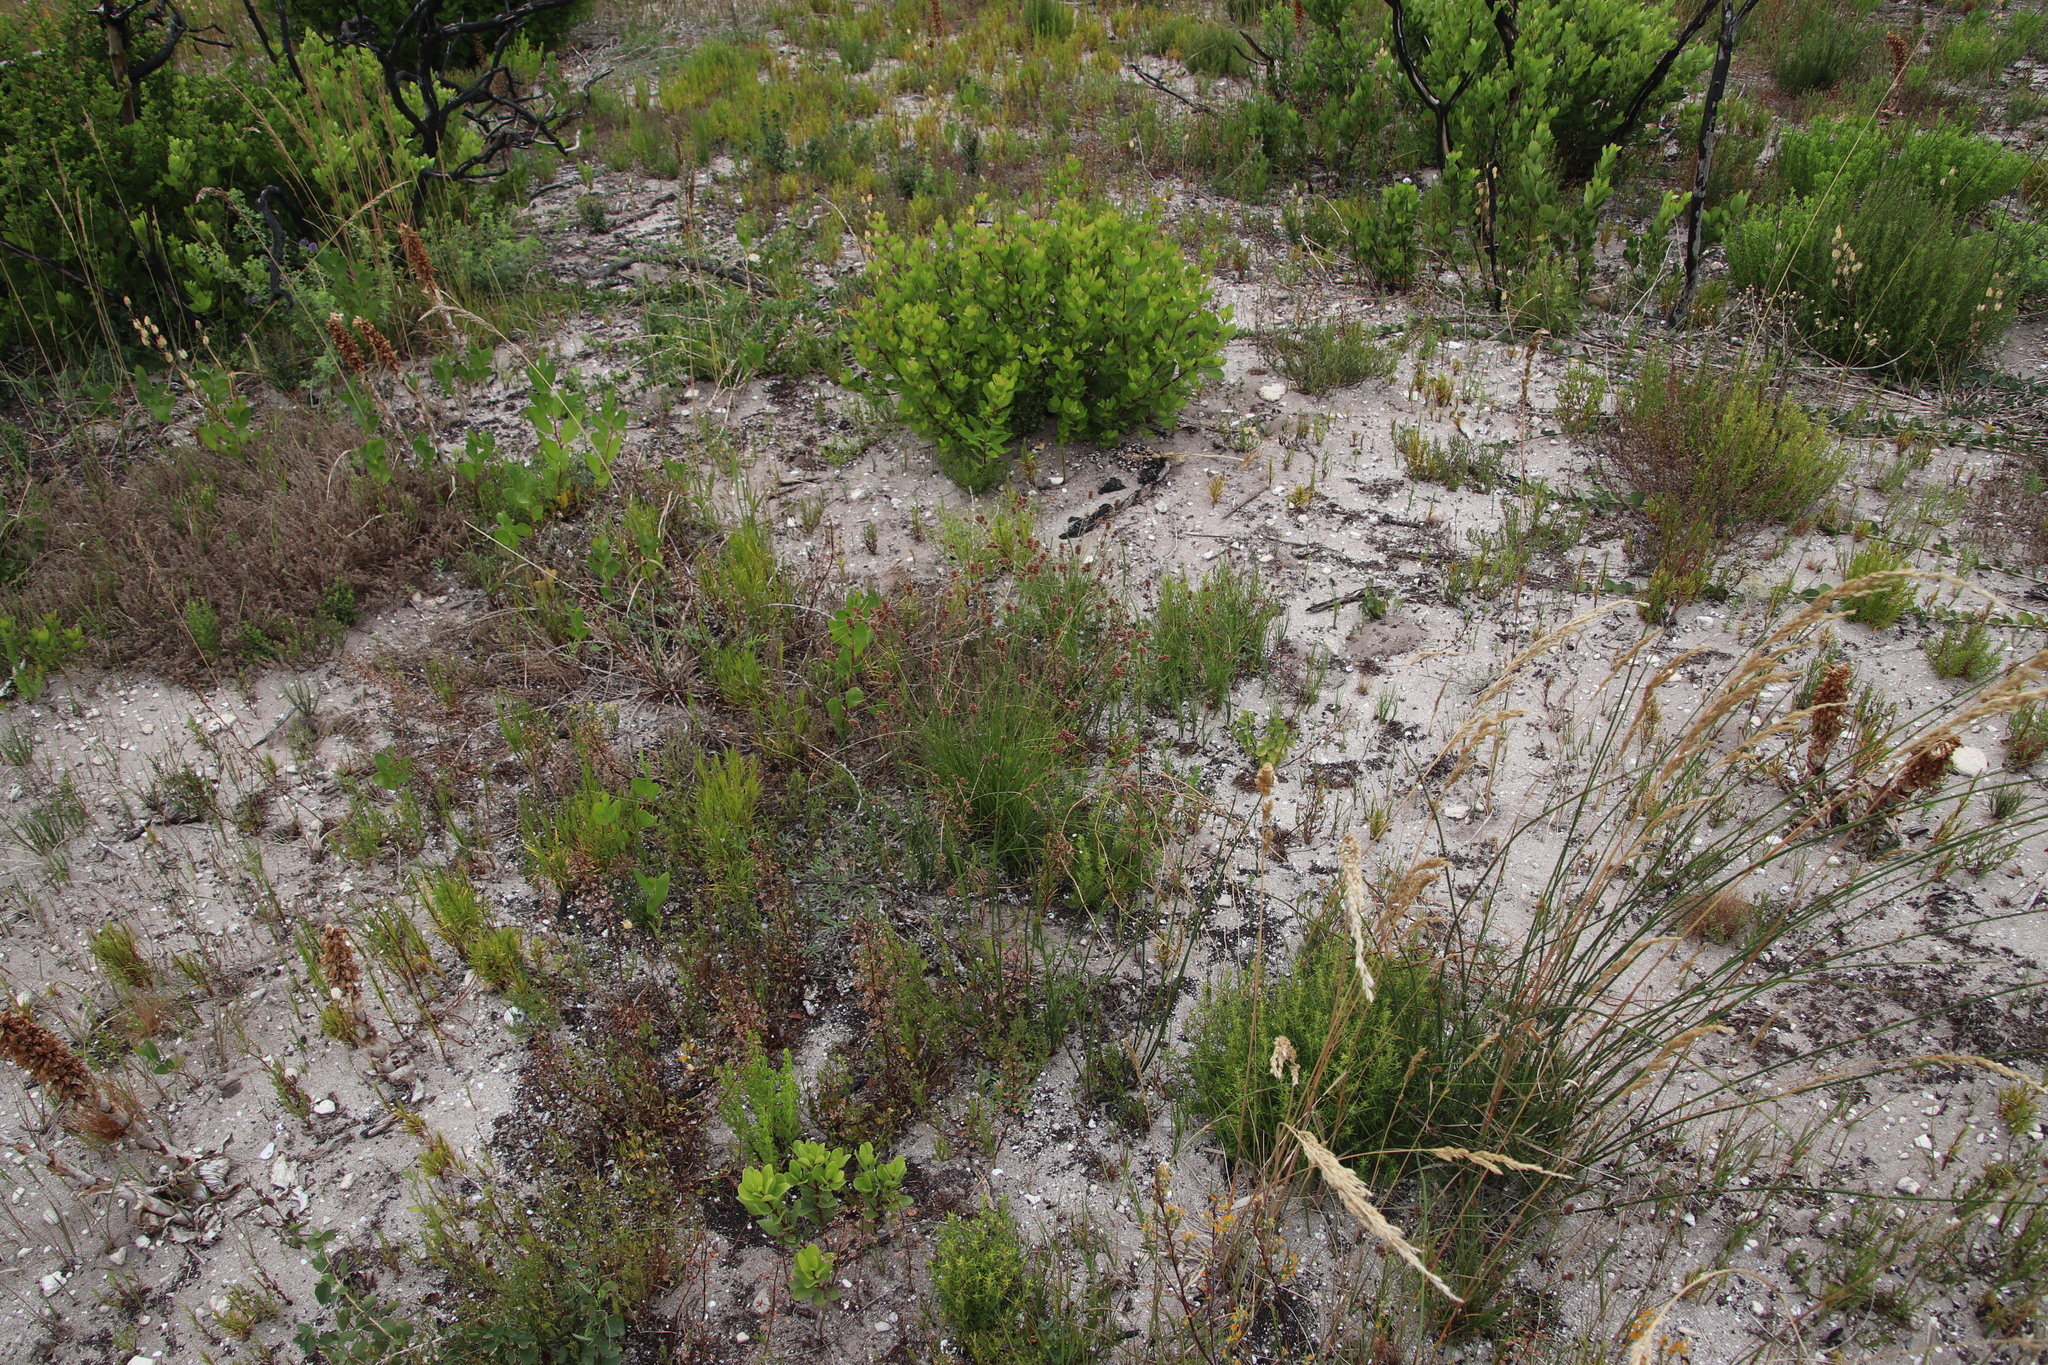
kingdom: Plantae
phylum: Tracheophyta
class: Liliopsida
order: Poales
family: Cyperaceae
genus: Ficinia
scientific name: Ficinia bulbosa
